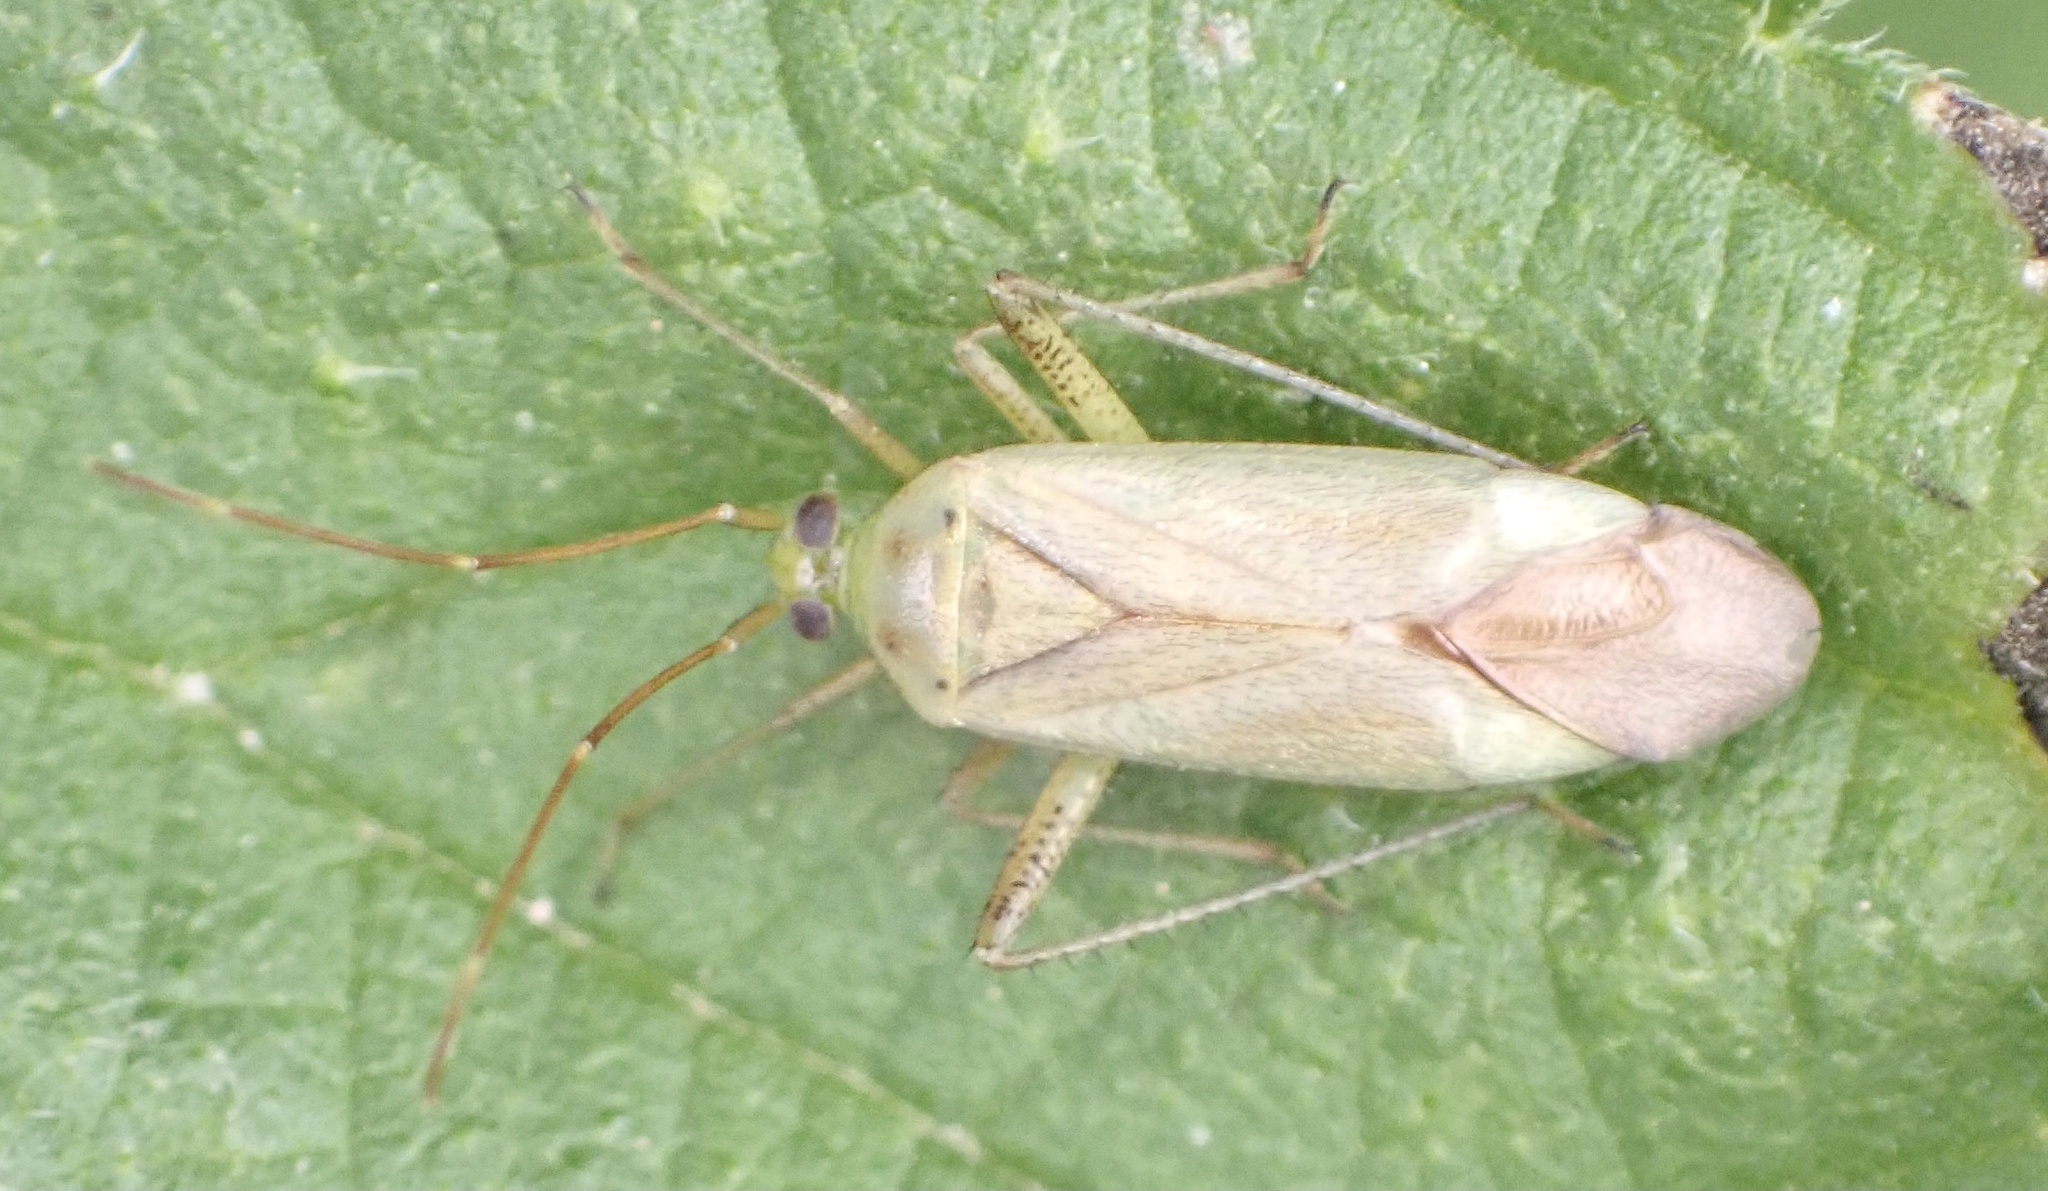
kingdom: Animalia
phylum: Arthropoda
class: Insecta
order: Hemiptera
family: Miridae
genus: Adelphocoris
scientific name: Adelphocoris quadripunctatus
